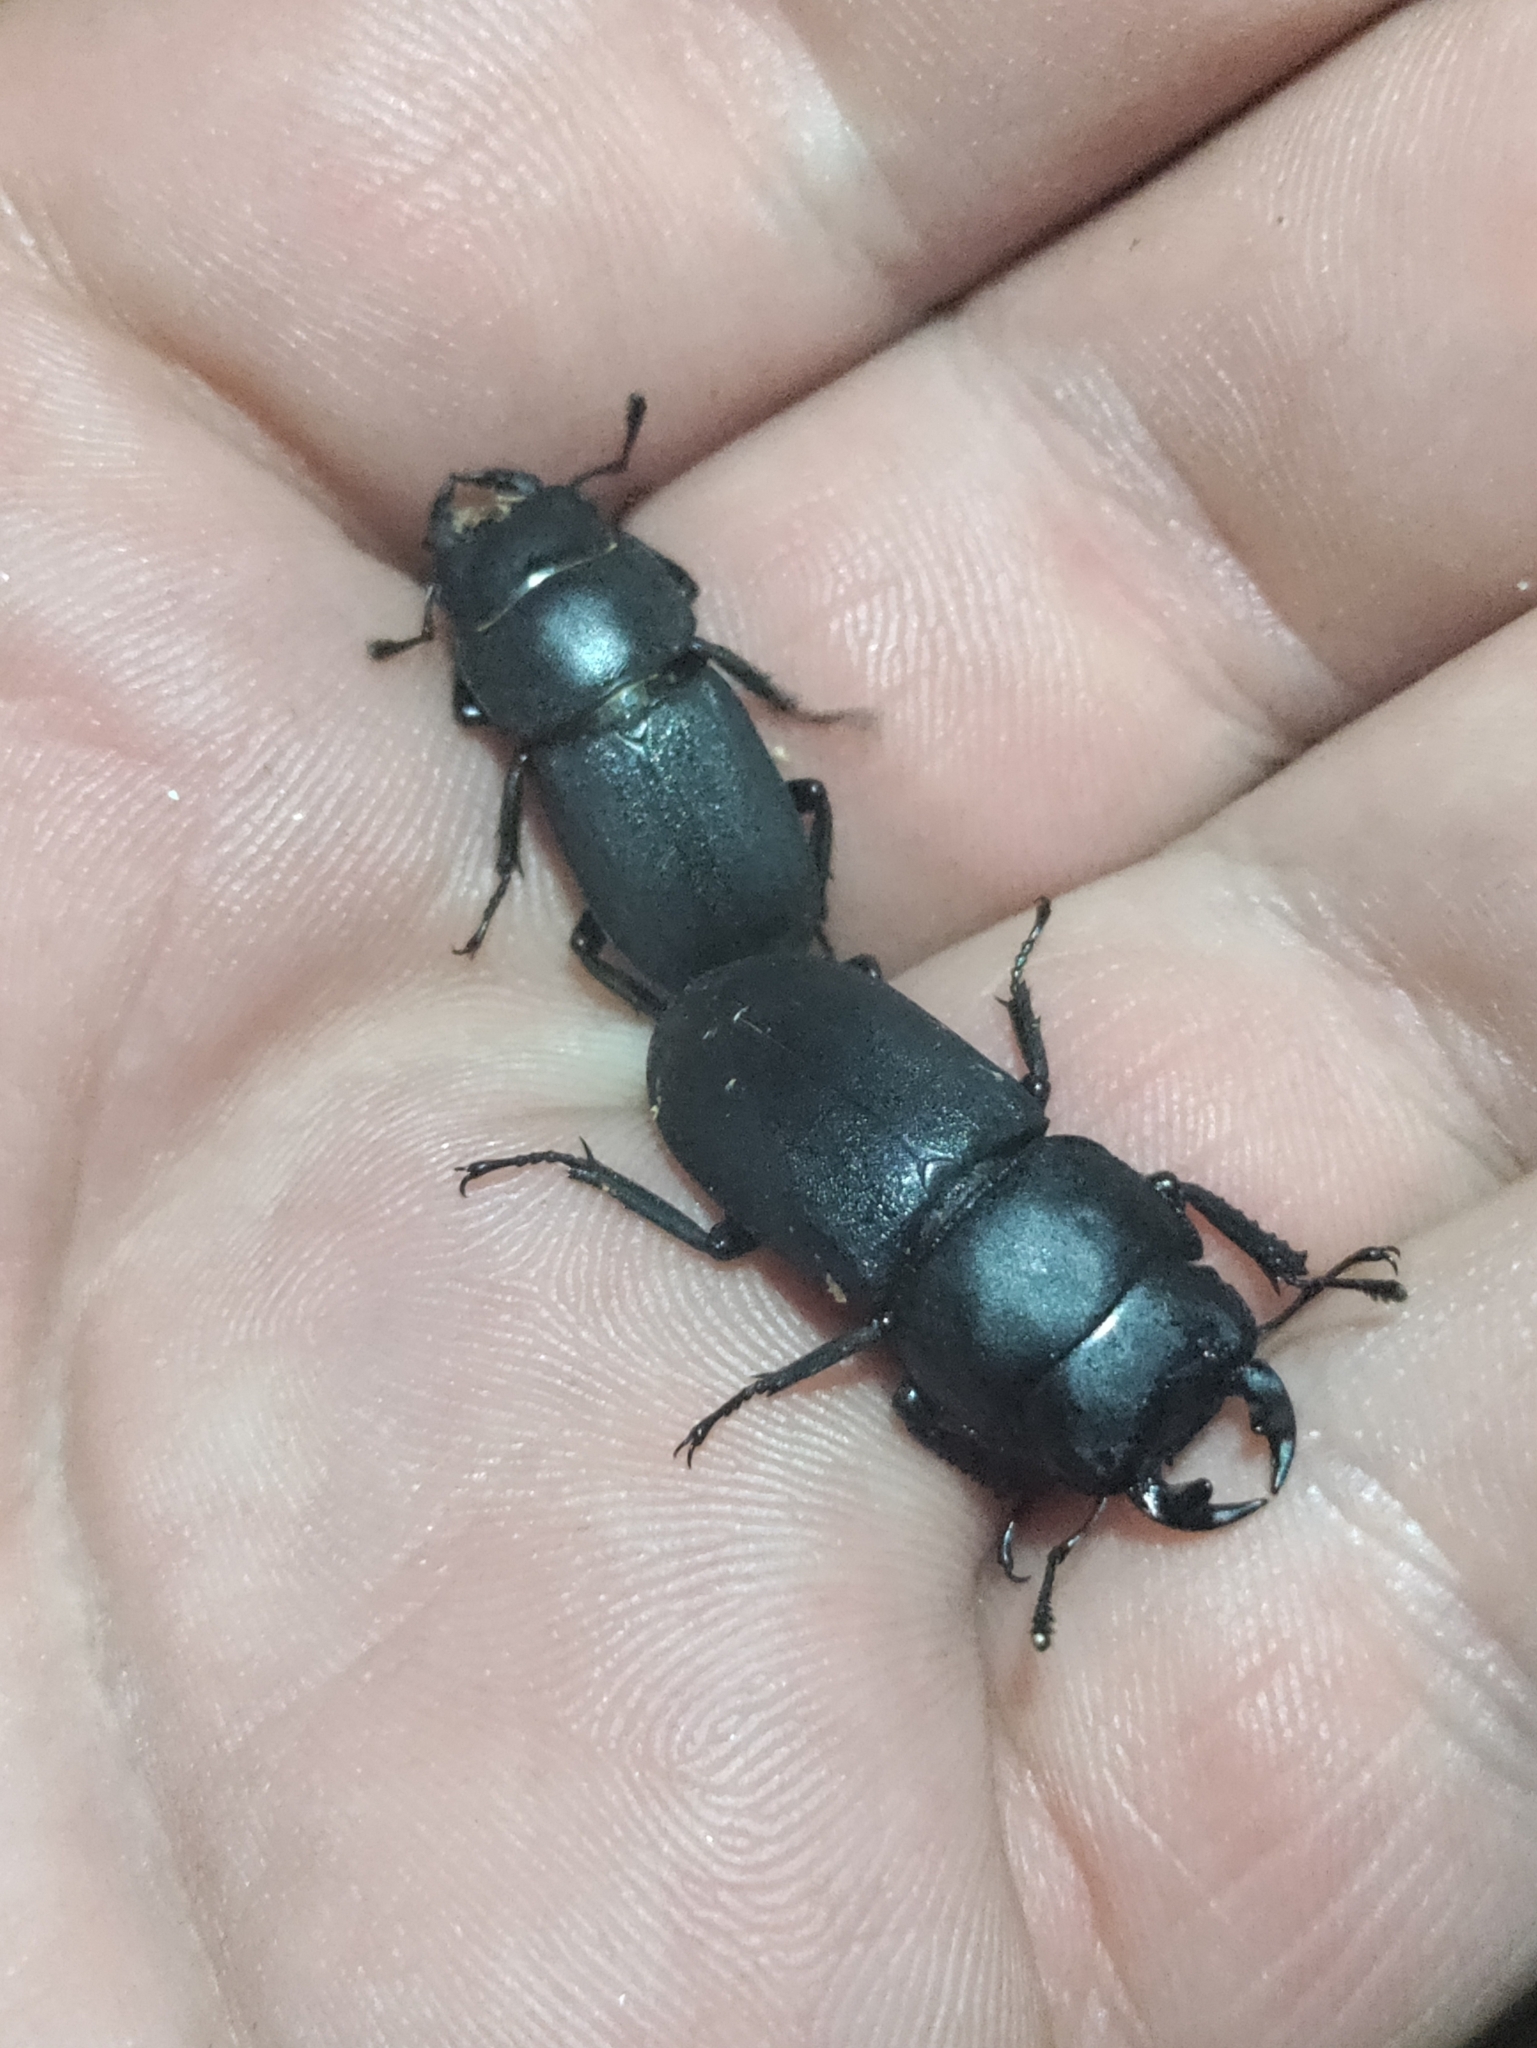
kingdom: Animalia
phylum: Arthropoda
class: Insecta
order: Coleoptera
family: Lucanidae
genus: Dorcus
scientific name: Dorcus parallelipipedus
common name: Lesser stag beetle
